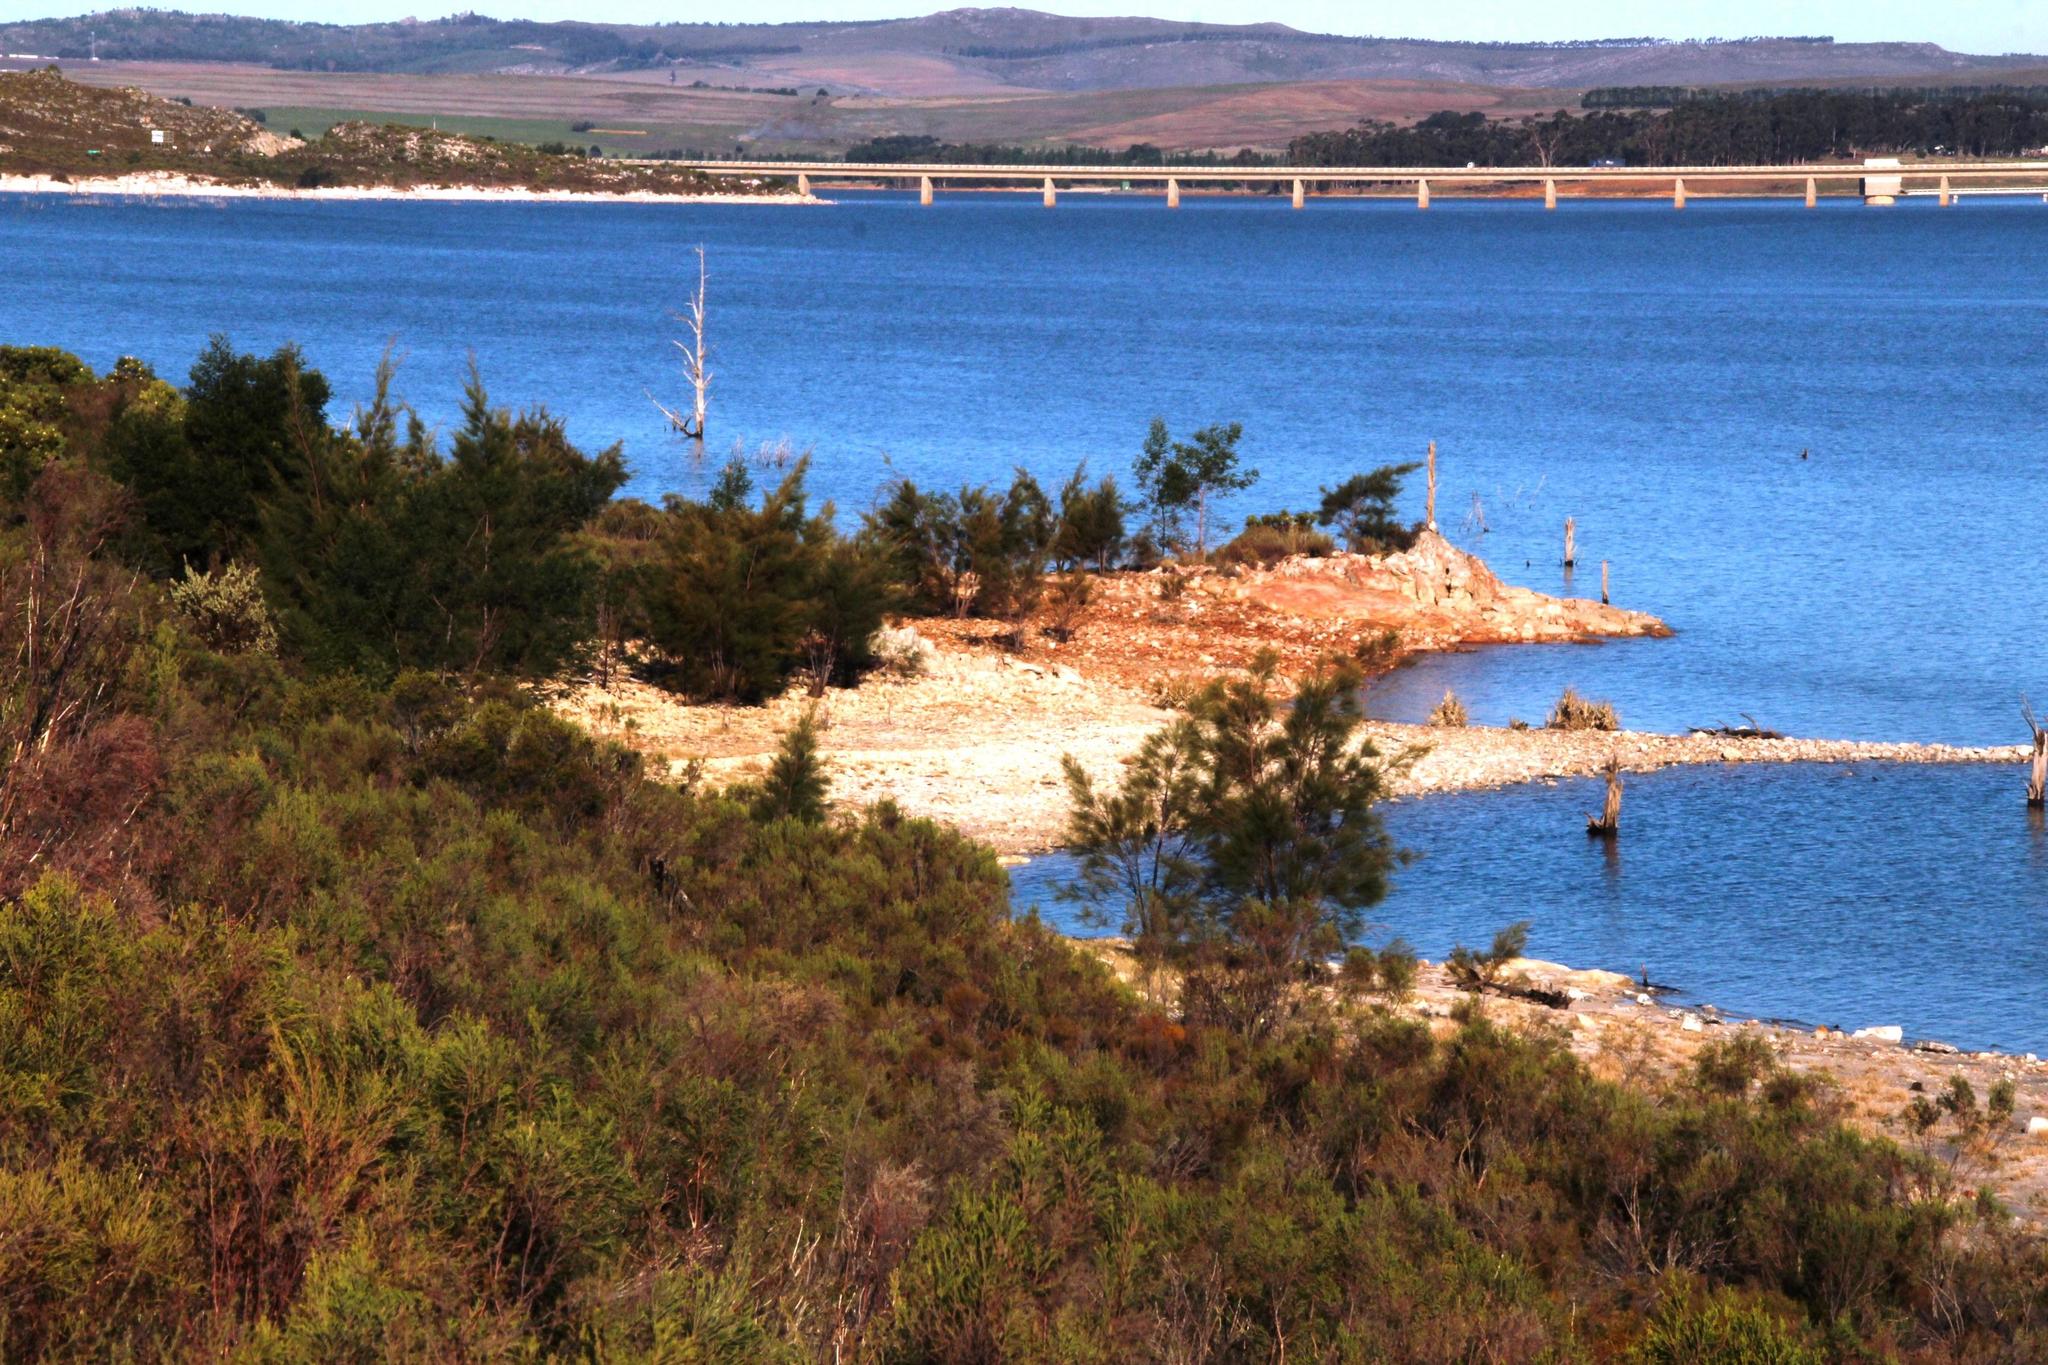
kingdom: Plantae
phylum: Tracheophyta
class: Magnoliopsida
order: Fagales
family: Casuarinaceae
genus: Casuarina
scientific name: Casuarina cunninghamiana
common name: River sheoak
